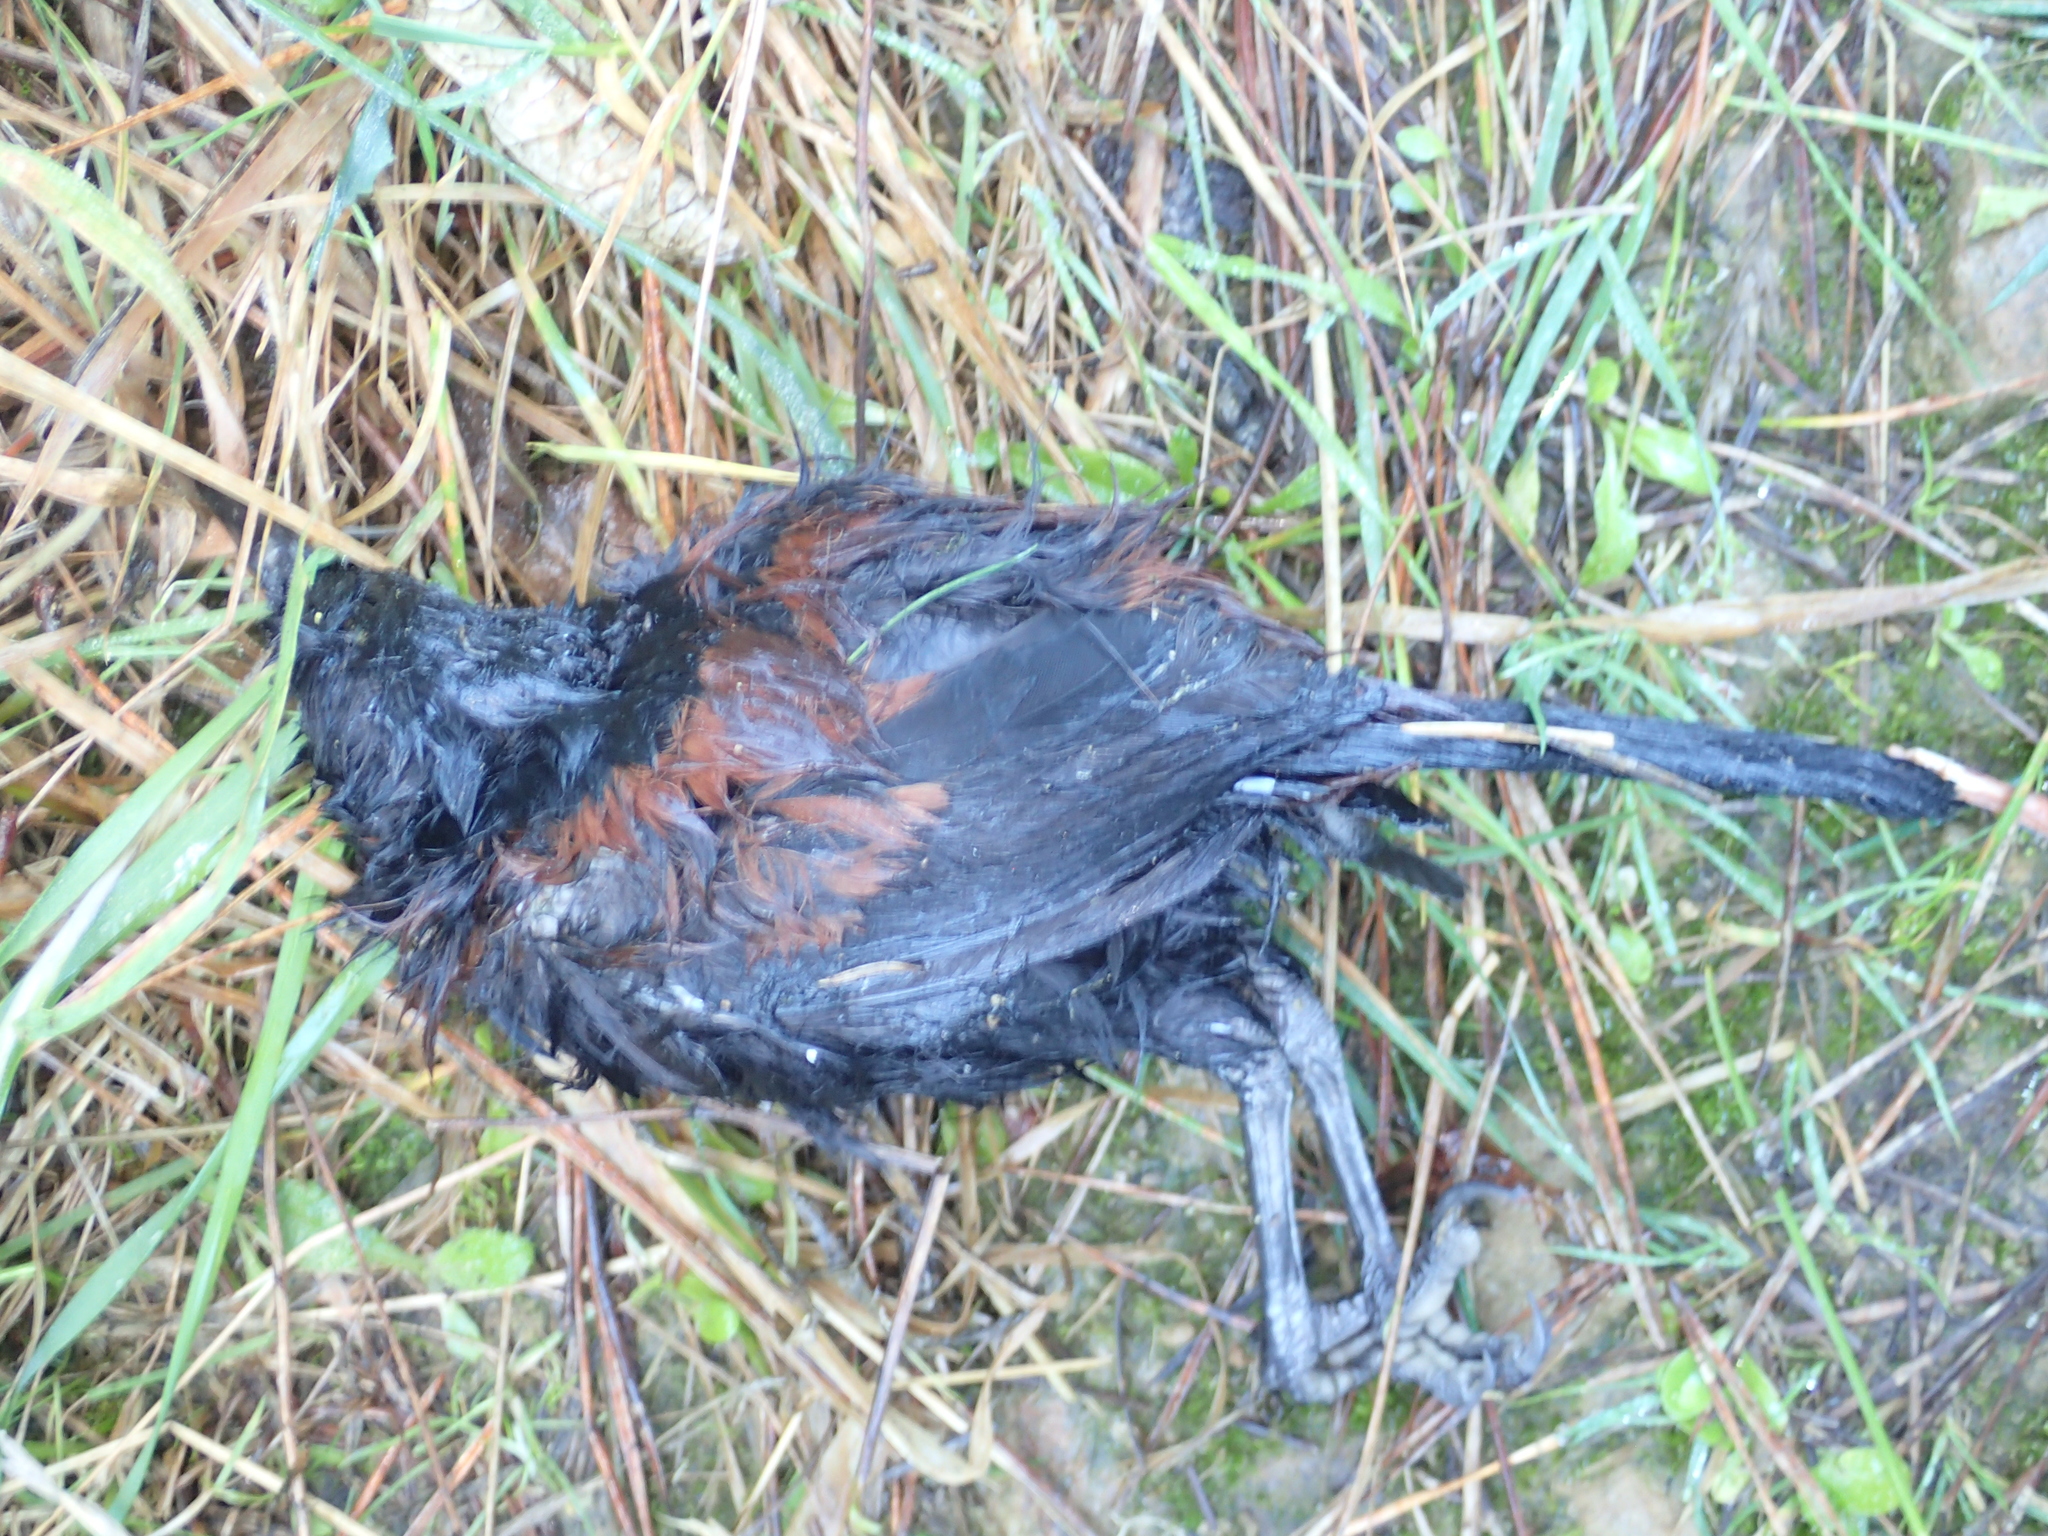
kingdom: Animalia
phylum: Chordata
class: Aves
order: Passeriformes
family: Callaeatidae
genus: Philesturnus
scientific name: Philesturnus carunculatus
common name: South island saddleback
